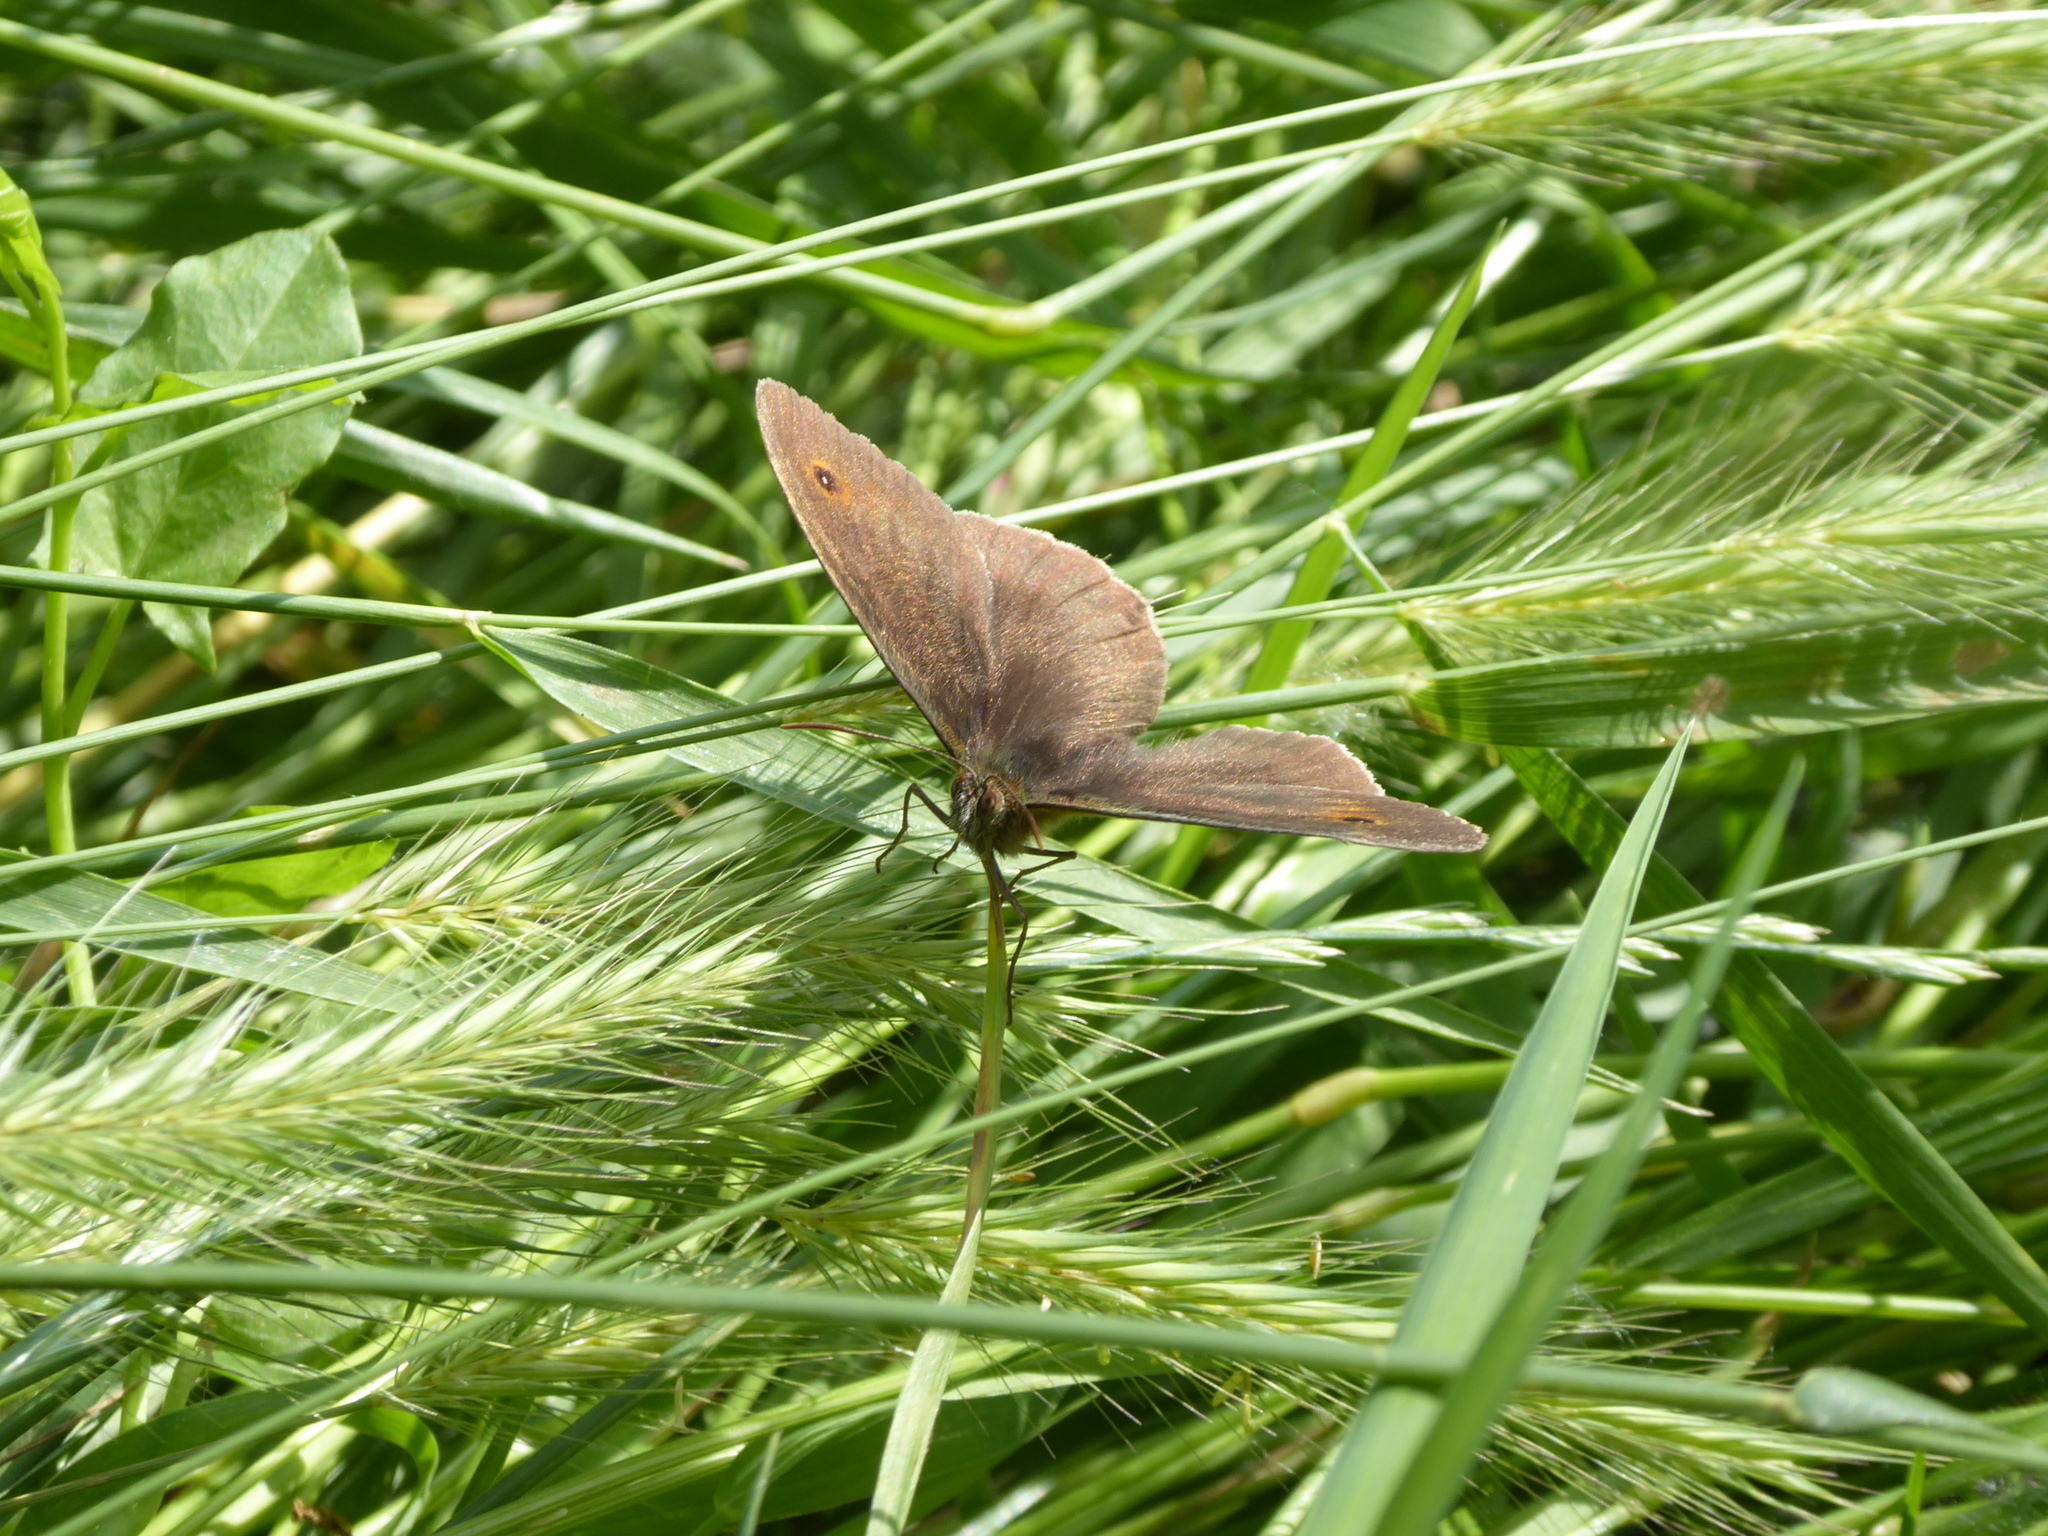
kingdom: Animalia
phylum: Arthropoda
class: Insecta
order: Lepidoptera
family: Nymphalidae
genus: Maniola
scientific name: Maniola jurtina
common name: Meadow brown
